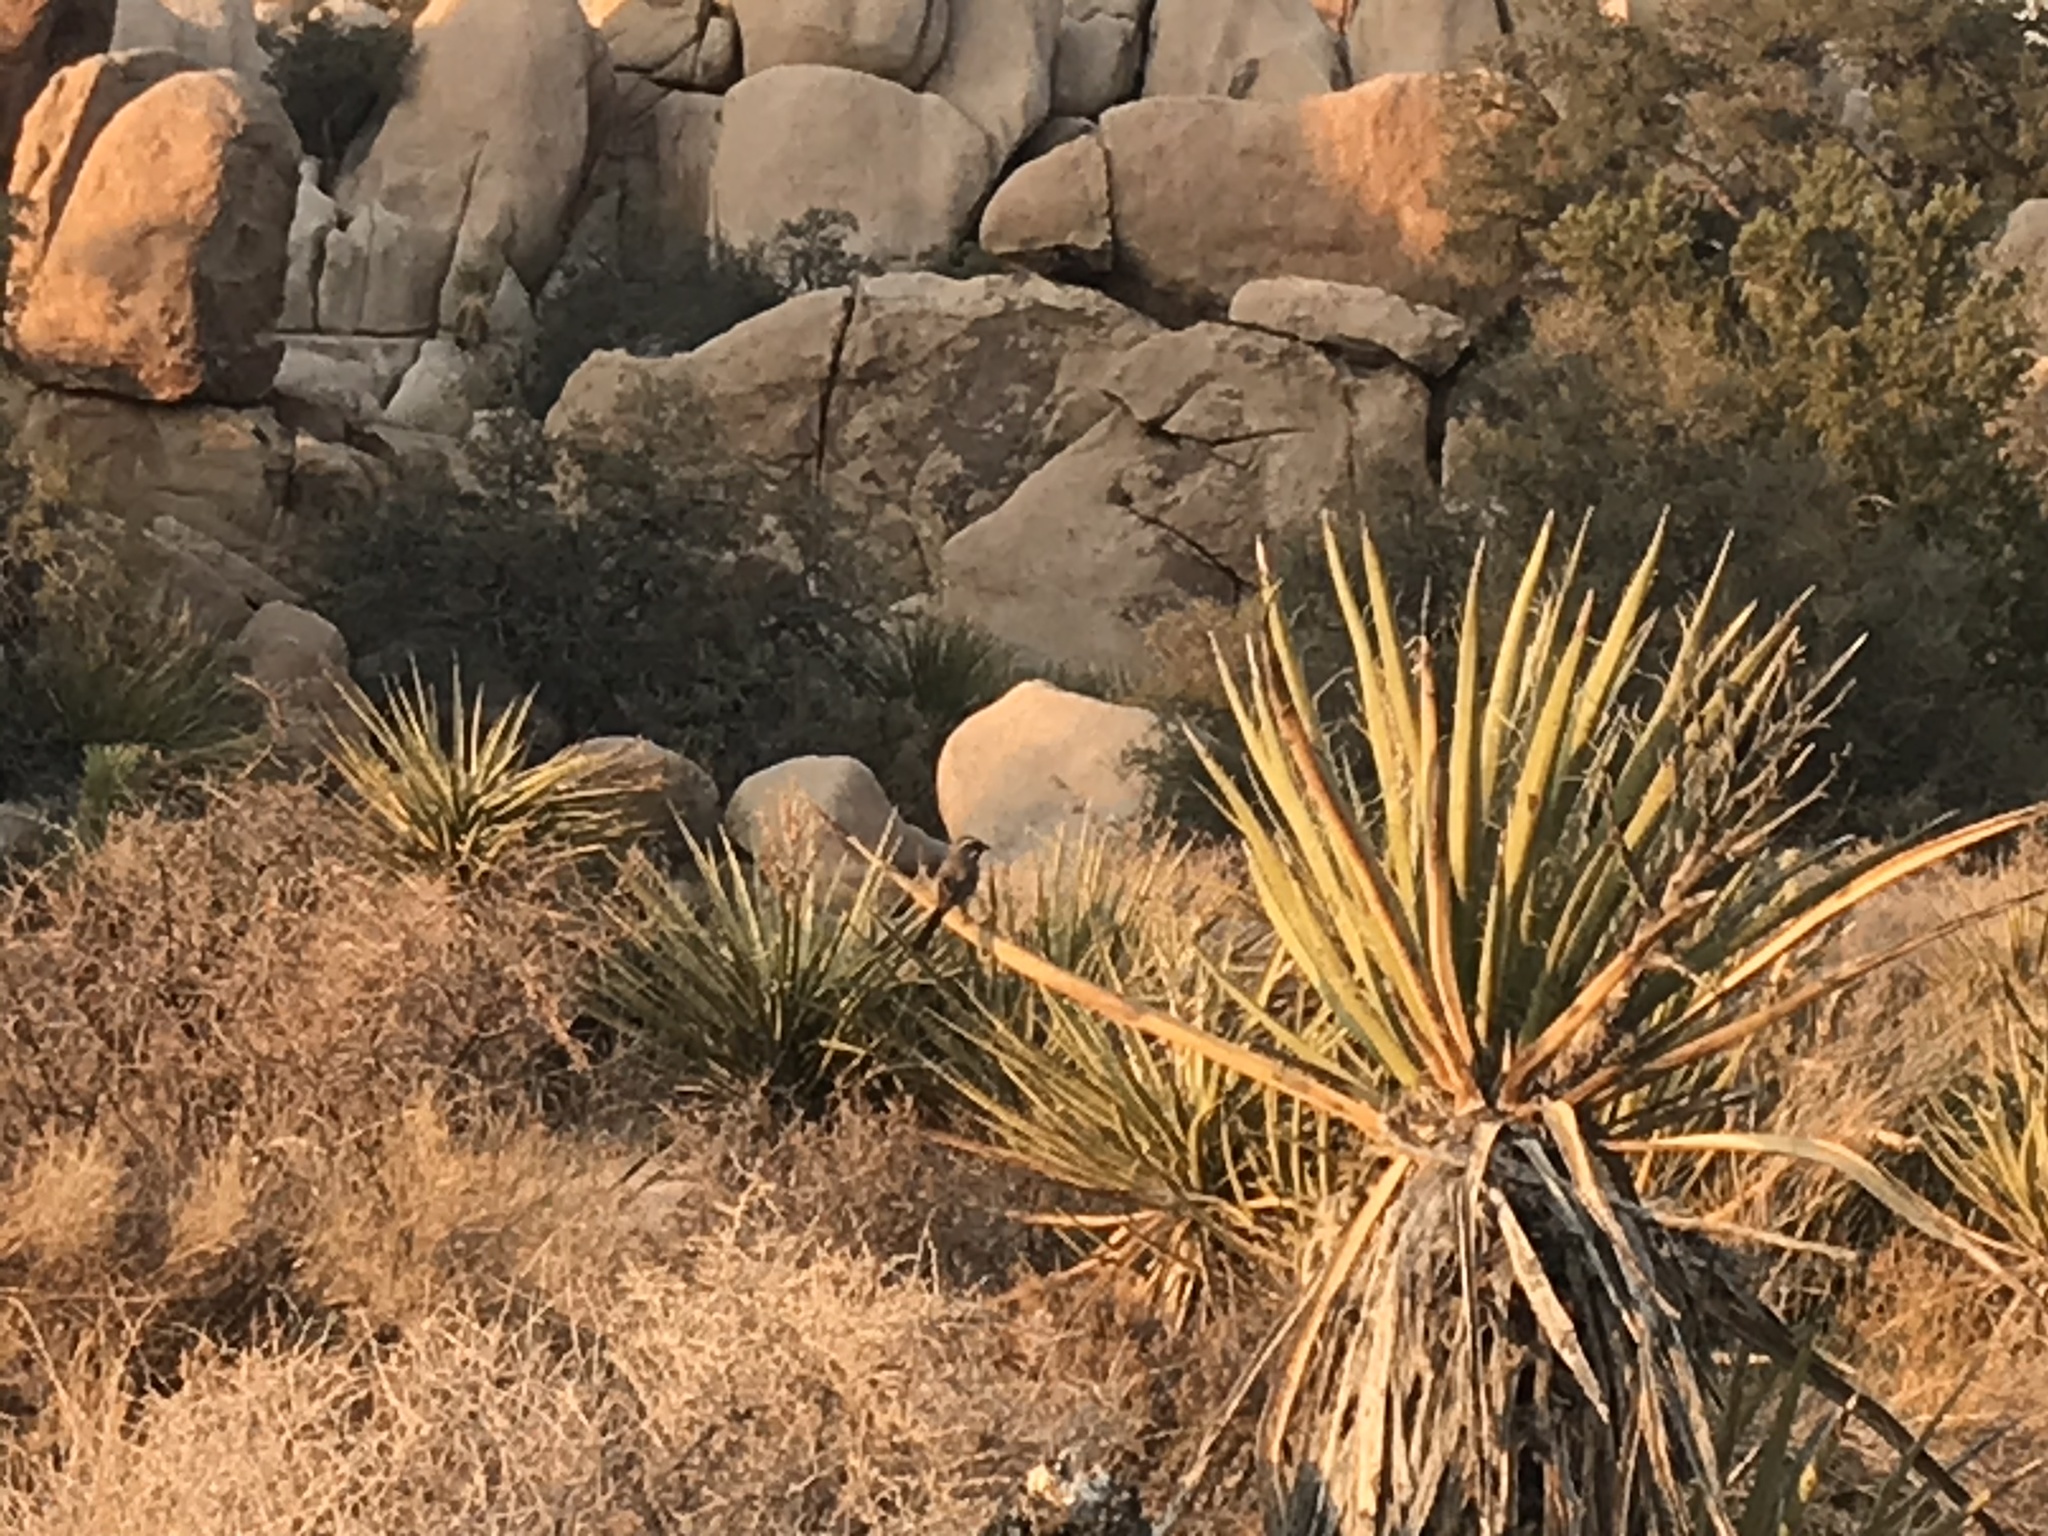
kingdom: Plantae
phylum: Tracheophyta
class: Liliopsida
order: Asparagales
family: Asparagaceae
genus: Yucca
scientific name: Yucca schidigera
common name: Mojave yucca
